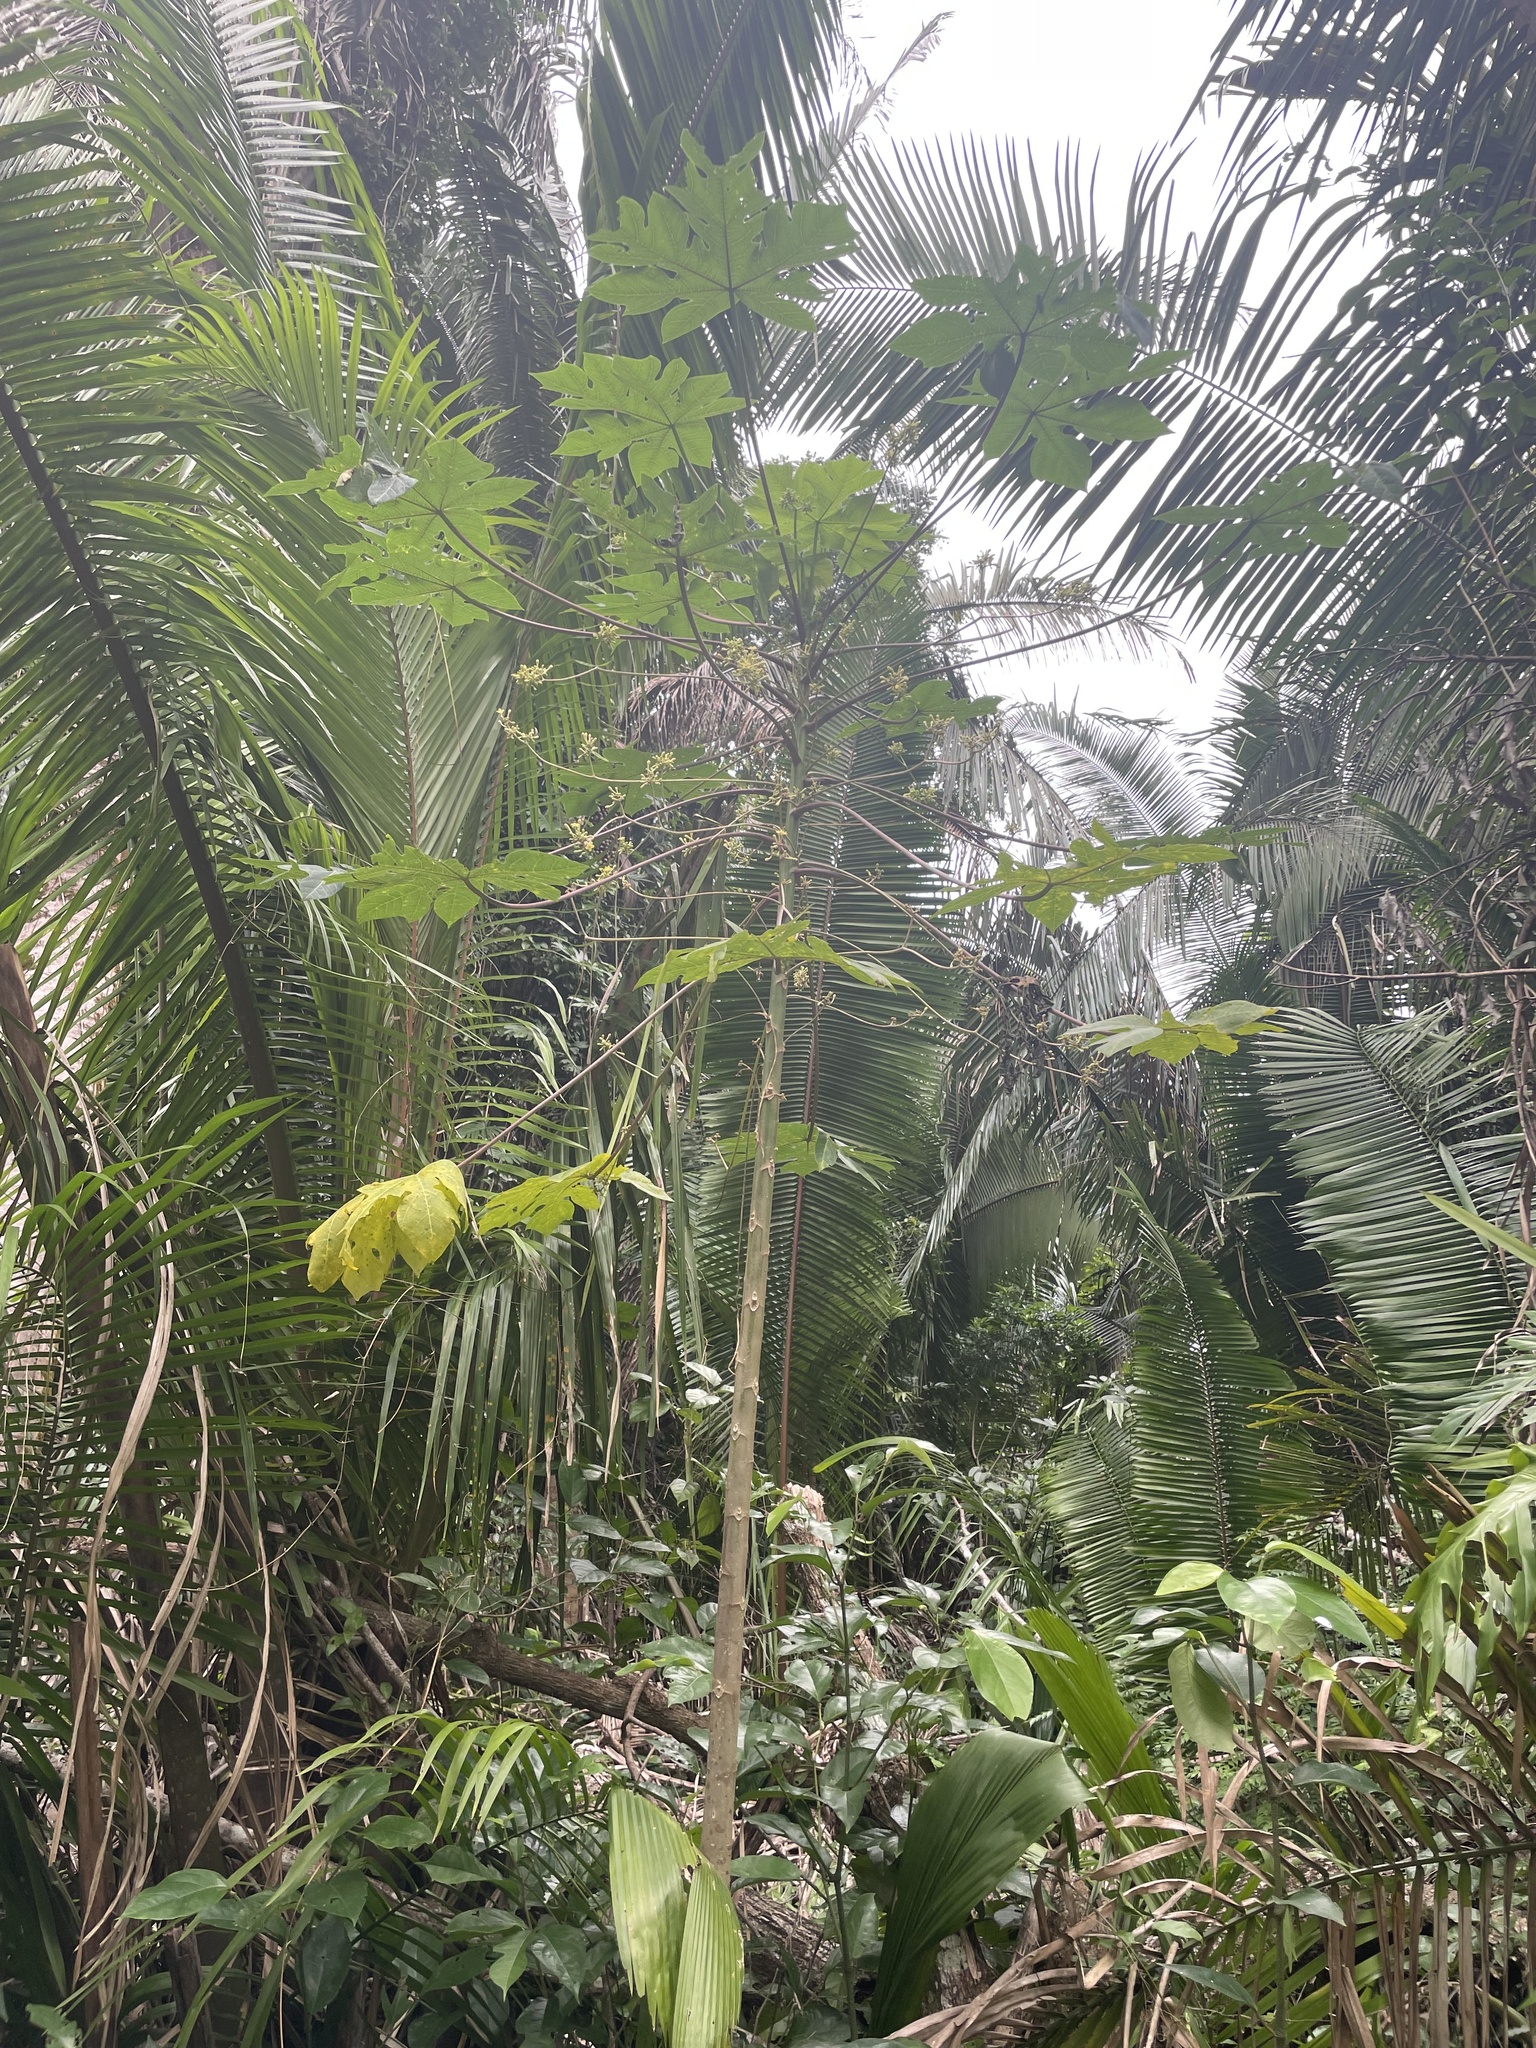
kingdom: Plantae
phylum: Tracheophyta
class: Magnoliopsida
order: Brassicales
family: Caricaceae
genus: Carica
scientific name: Carica papaya
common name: Papaya
